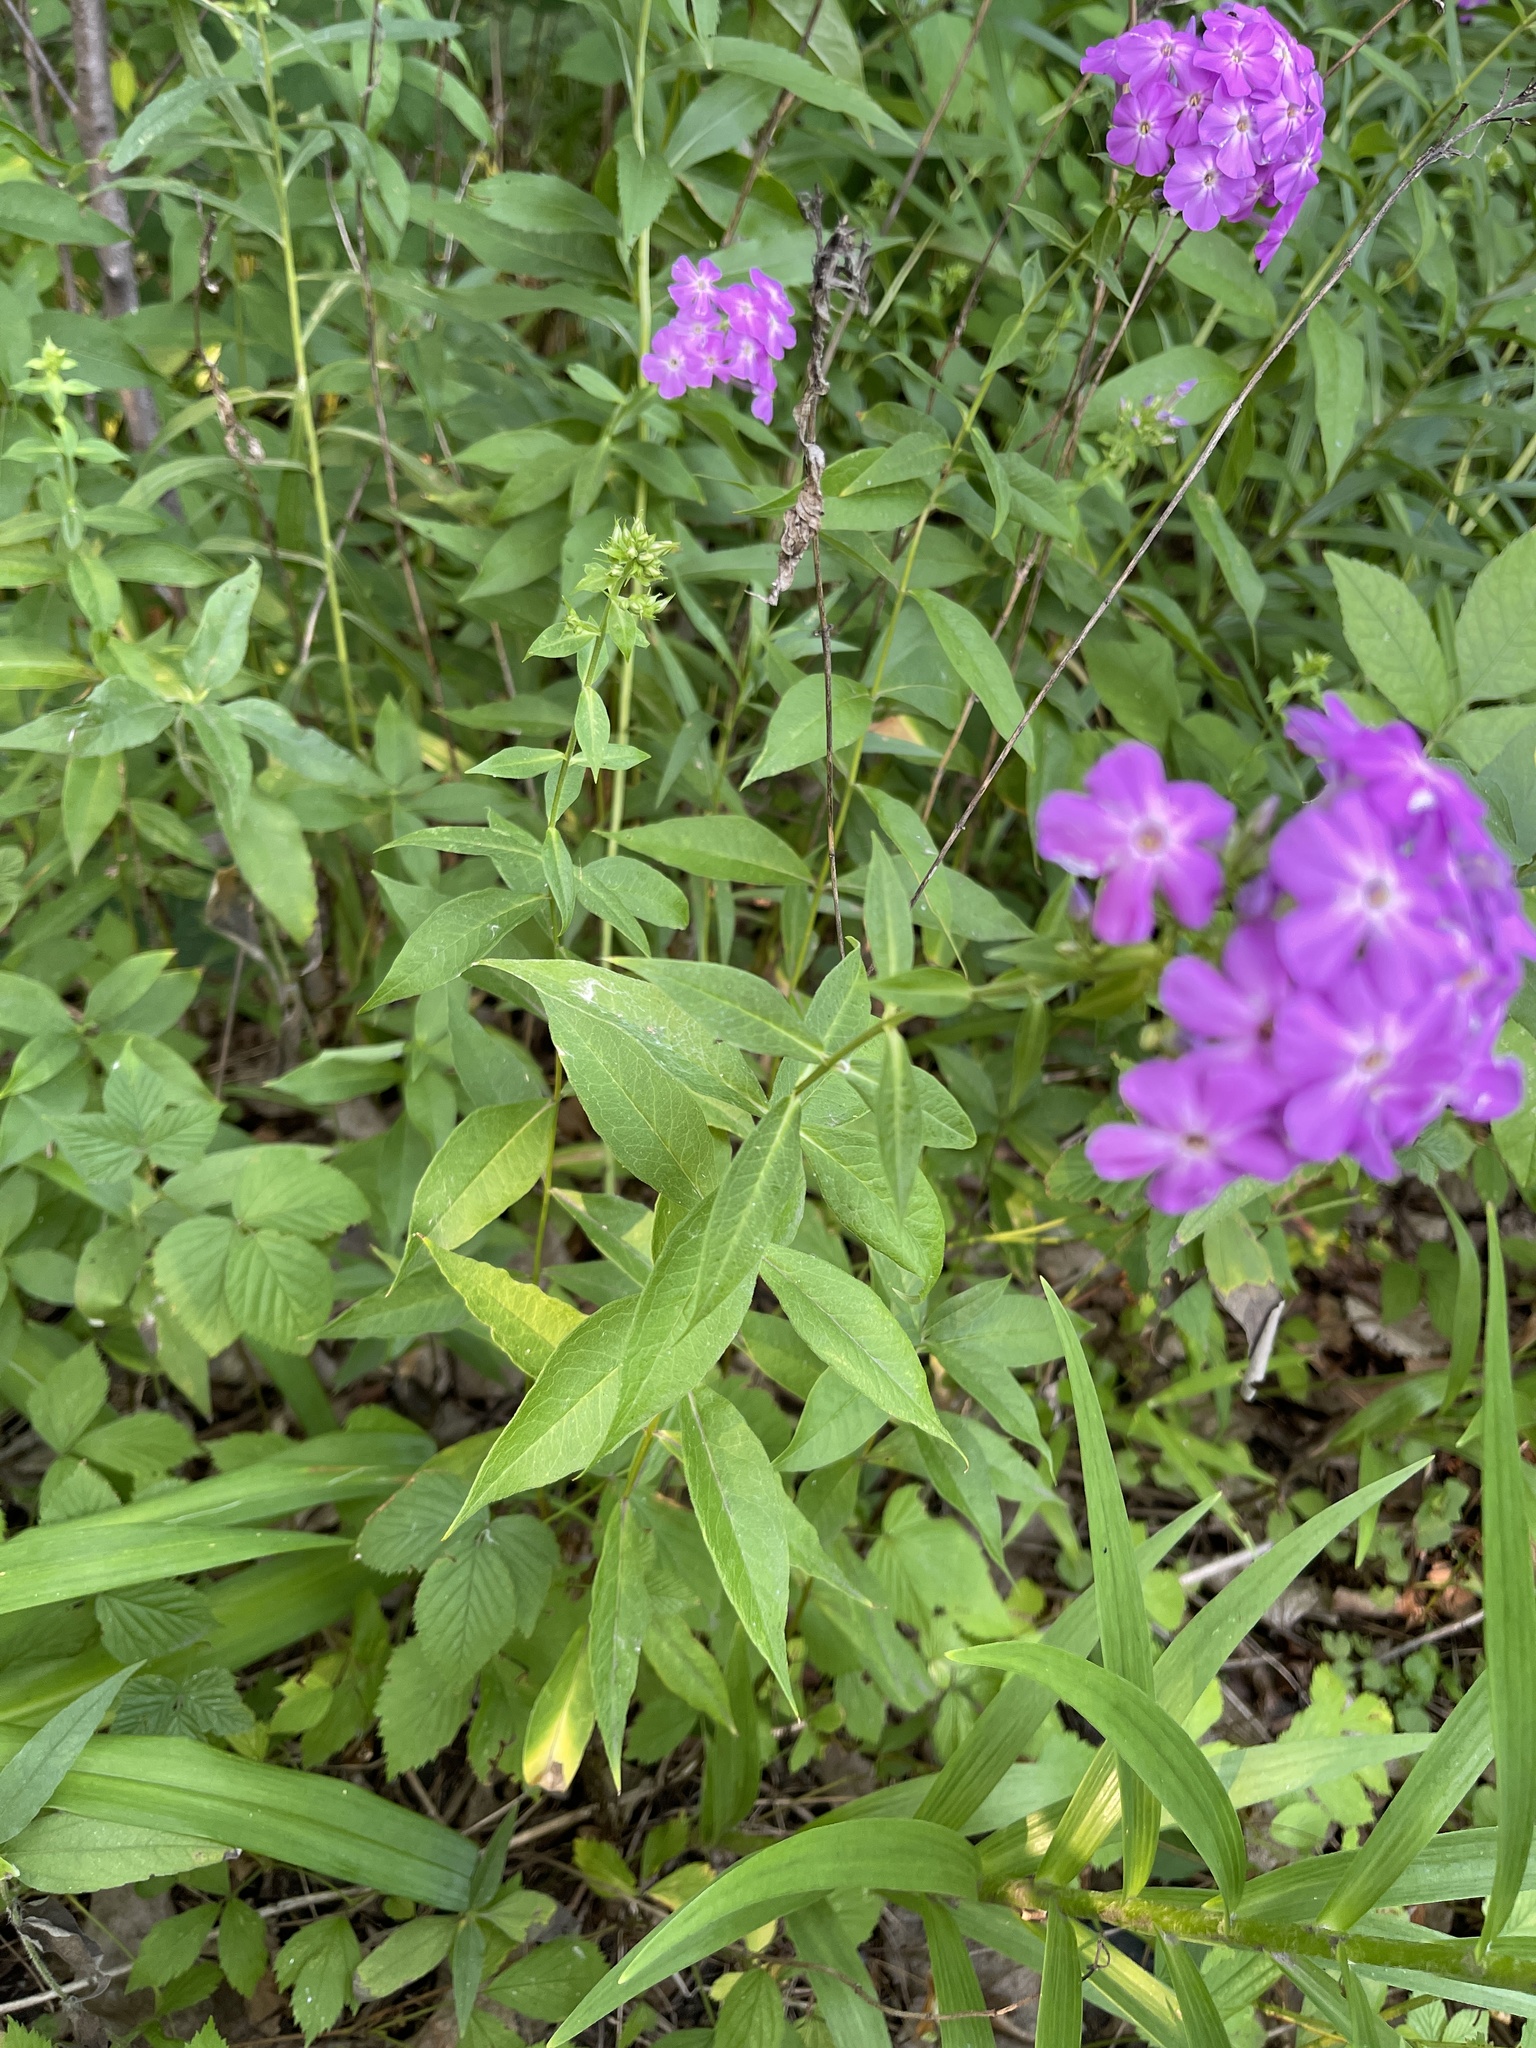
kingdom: Plantae
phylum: Tracheophyta
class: Magnoliopsida
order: Ericales
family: Polemoniaceae
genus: Phlox
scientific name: Phlox paniculata
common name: Fall phlox
